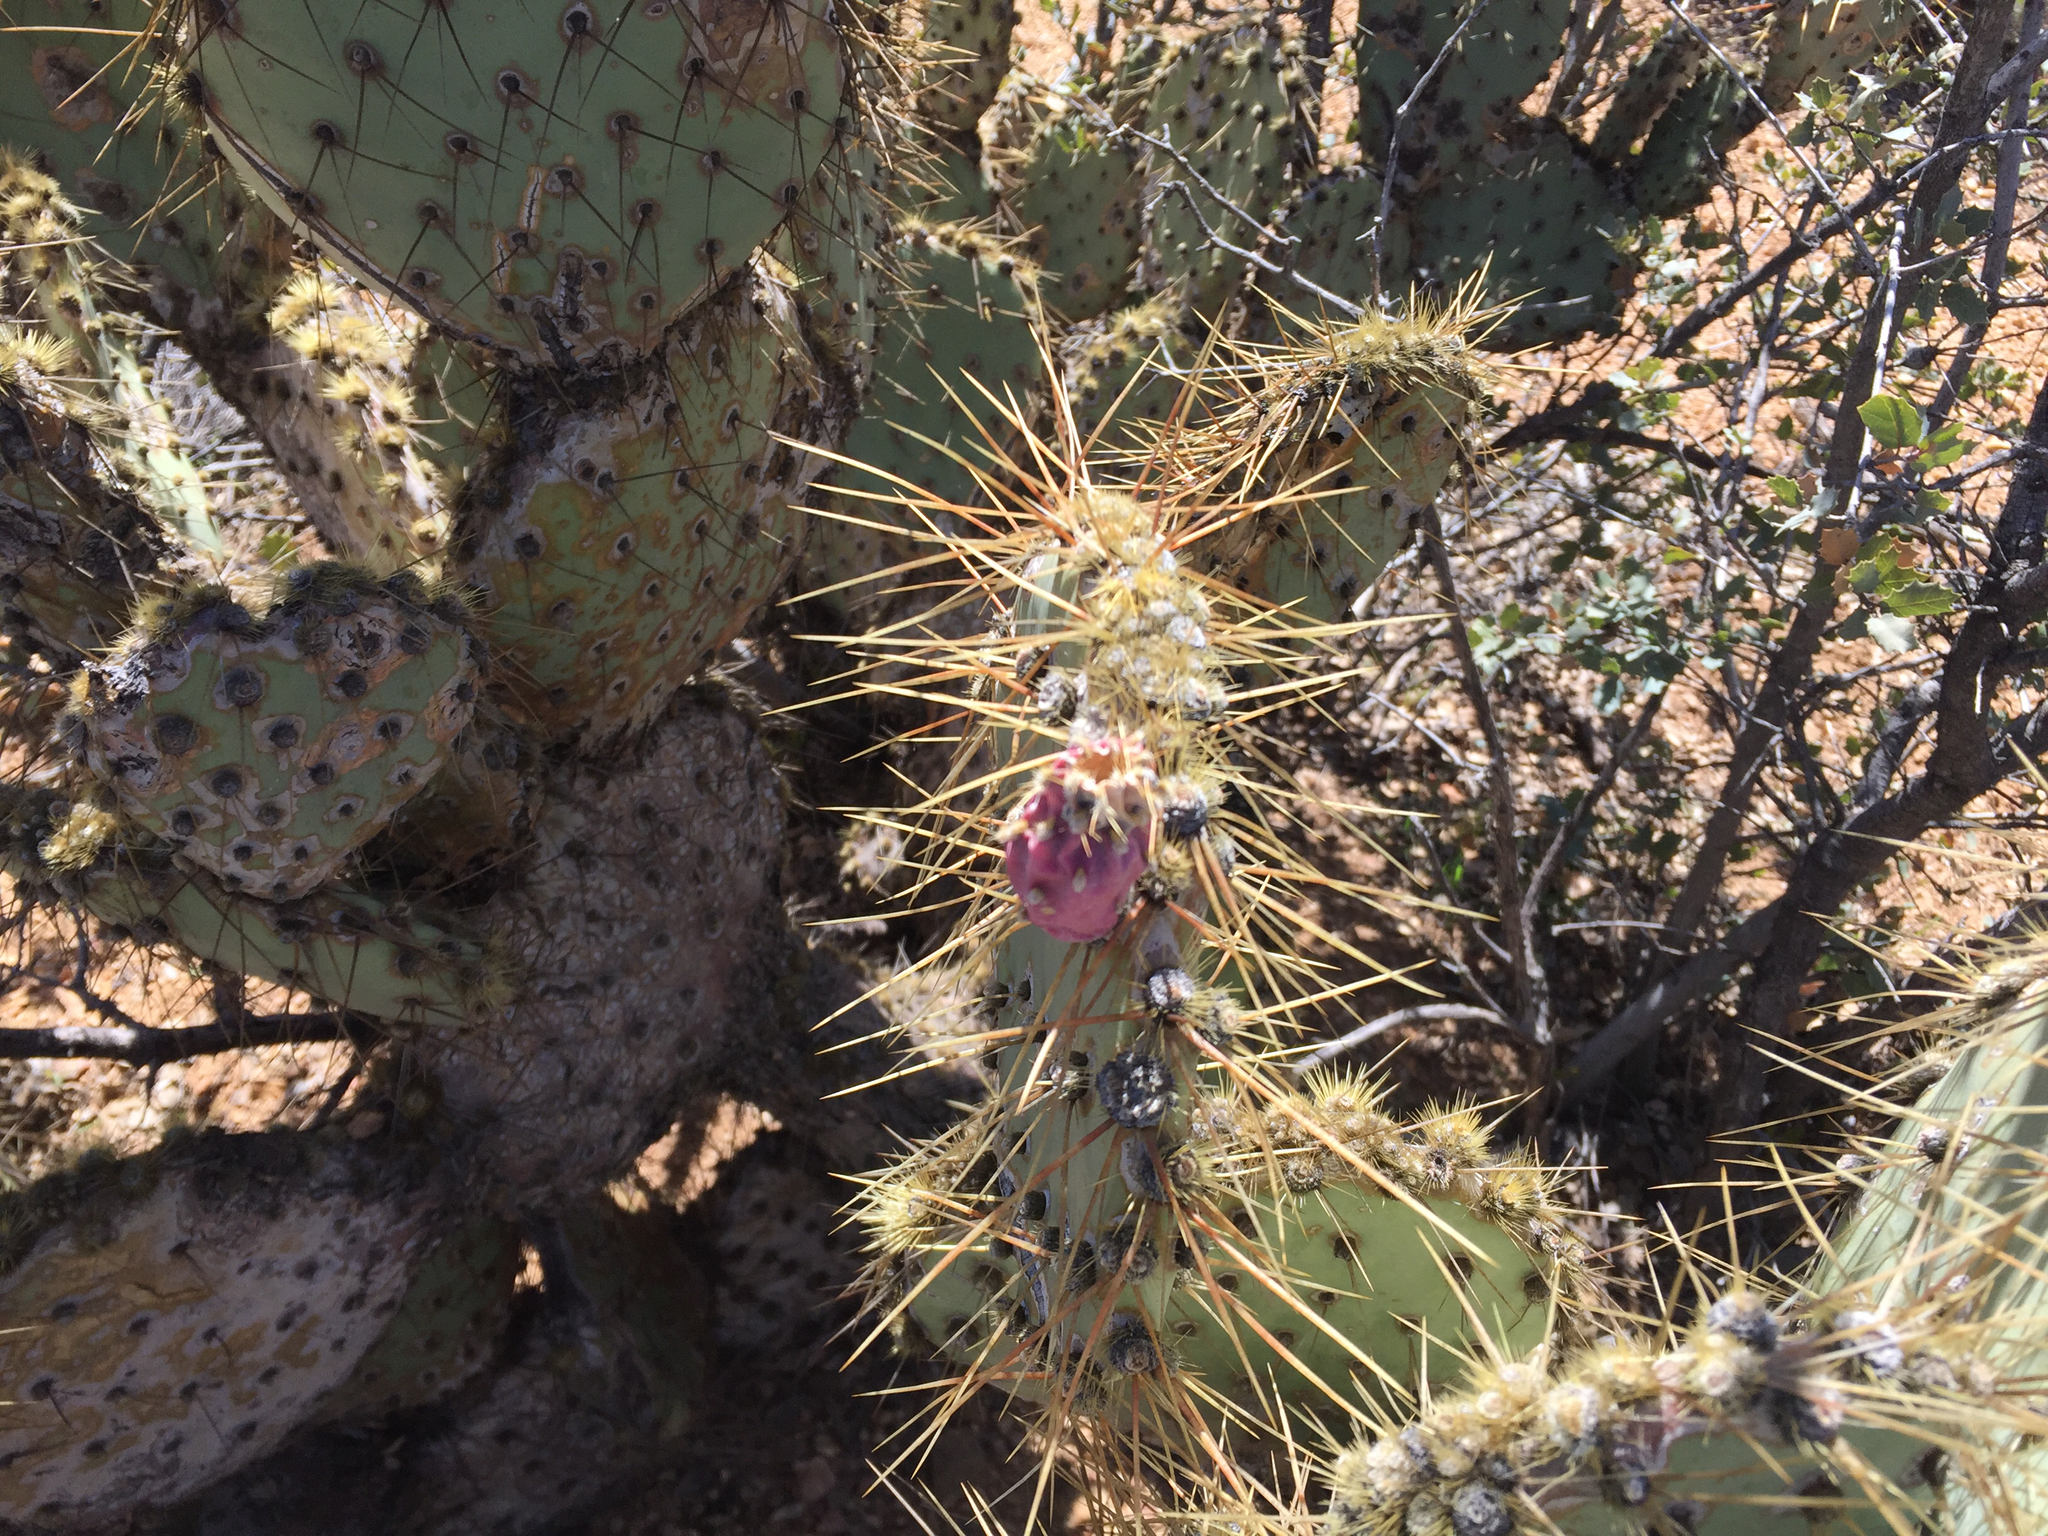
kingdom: Plantae
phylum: Tracheophyta
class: Magnoliopsida
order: Caryophyllales
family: Cactaceae
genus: Opuntia
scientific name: Opuntia curvispina
